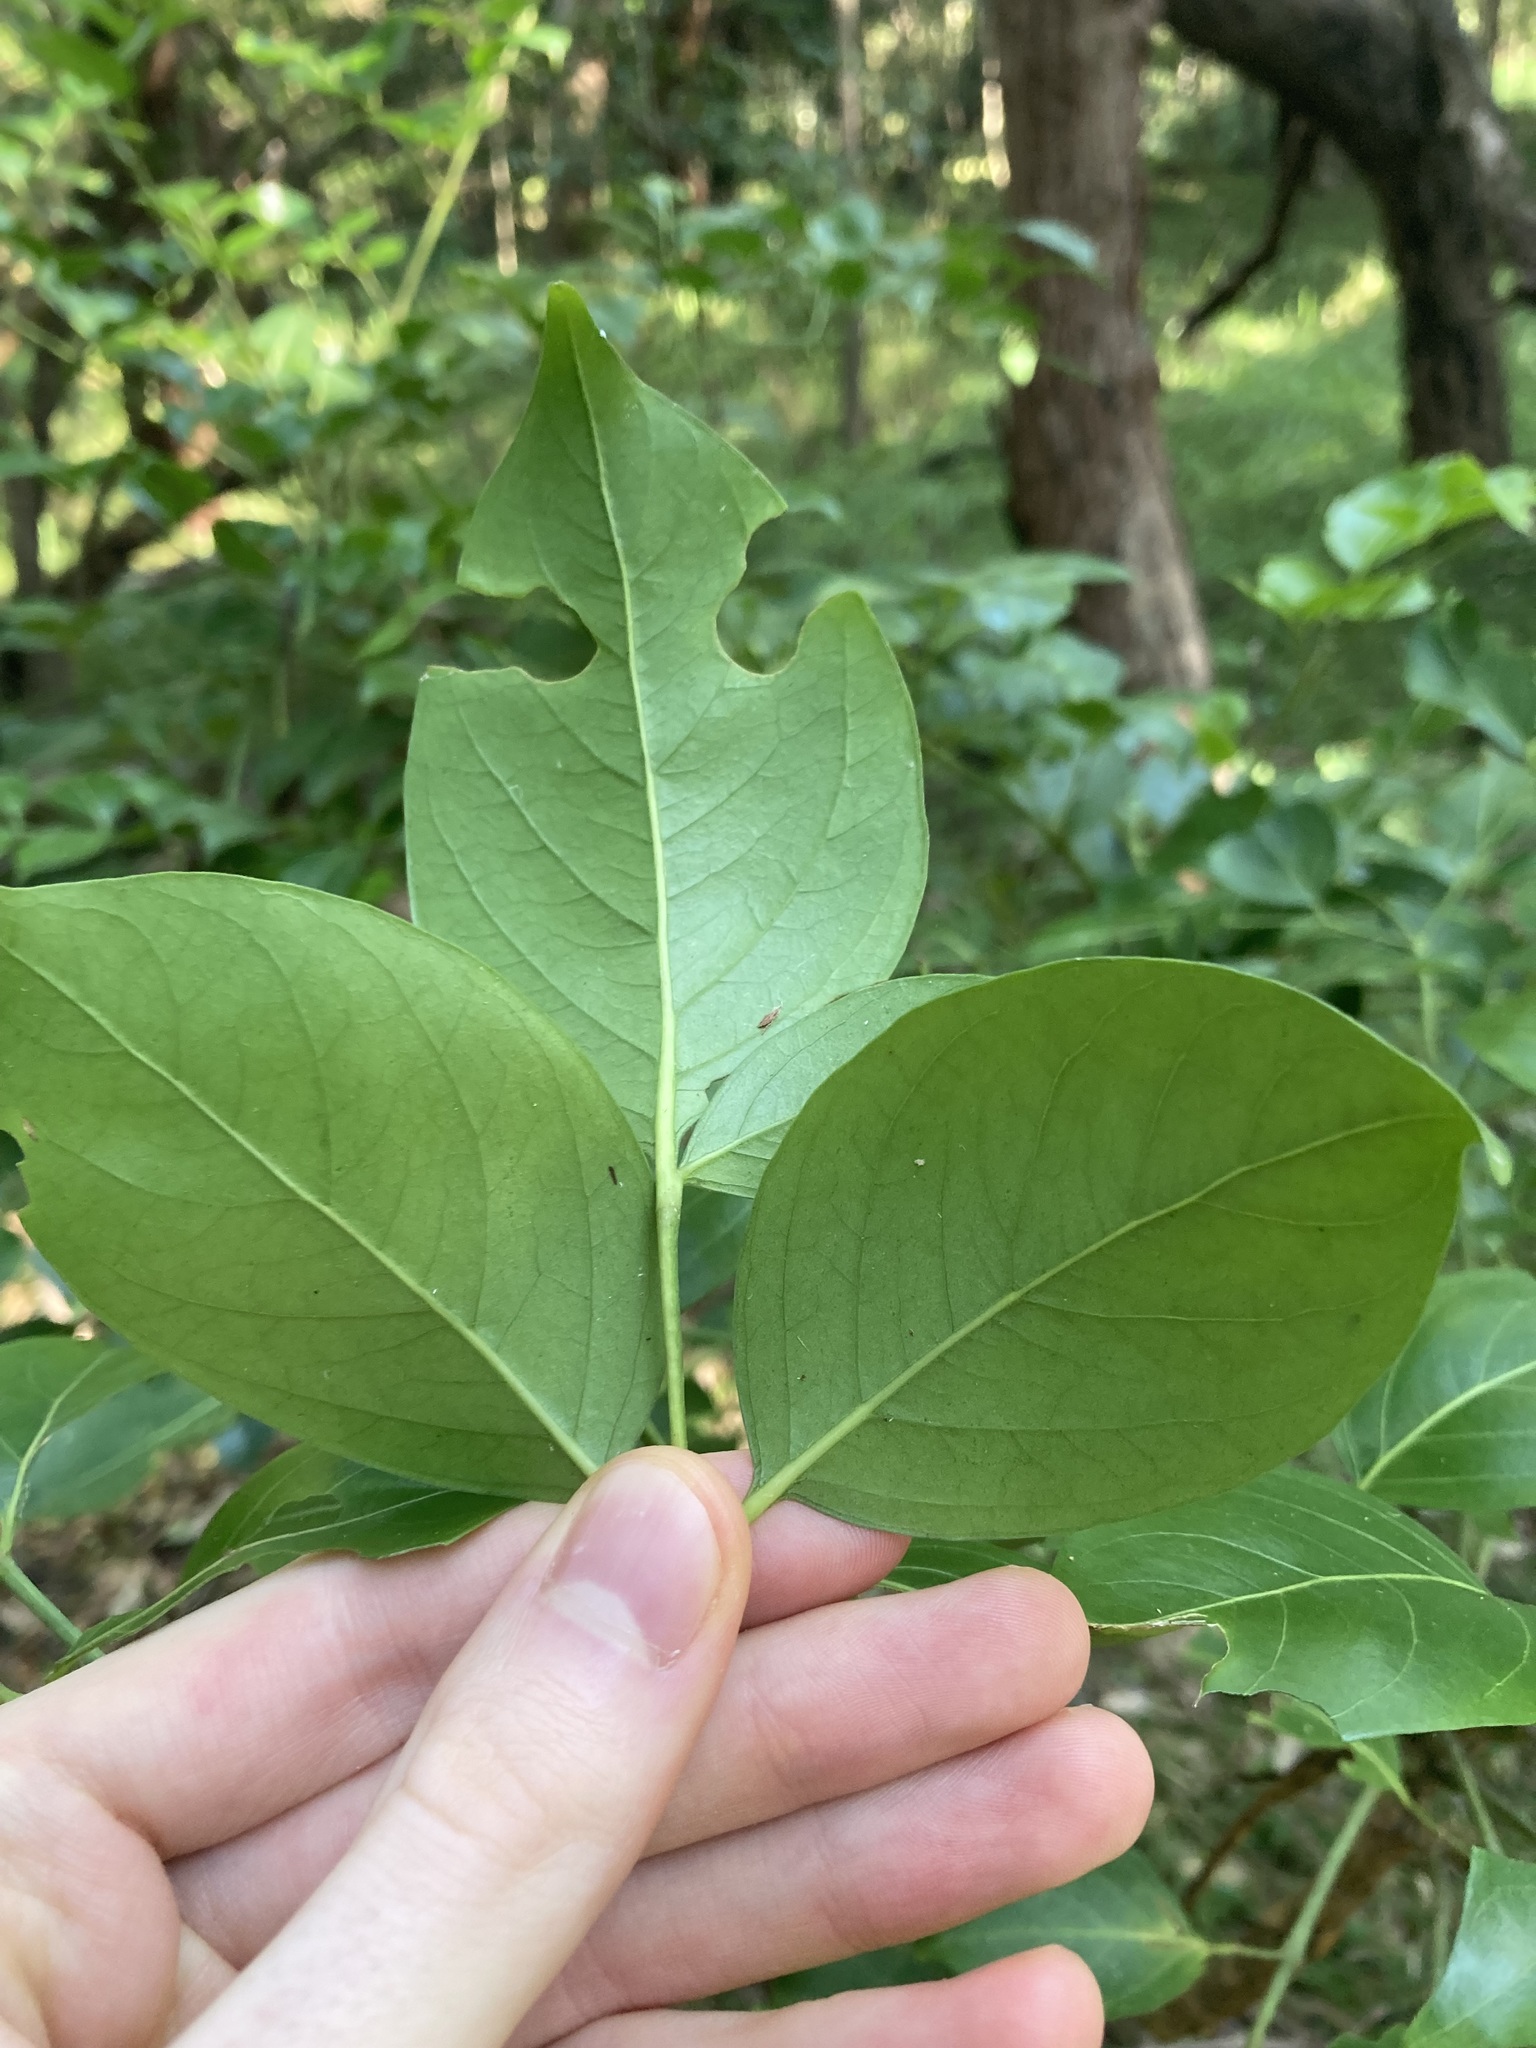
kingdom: Plantae
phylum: Tracheophyta
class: Magnoliopsida
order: Apiales
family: Araliaceae
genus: Polyscias
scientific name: Polyscias elegans
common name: Mowbulan whitewood
